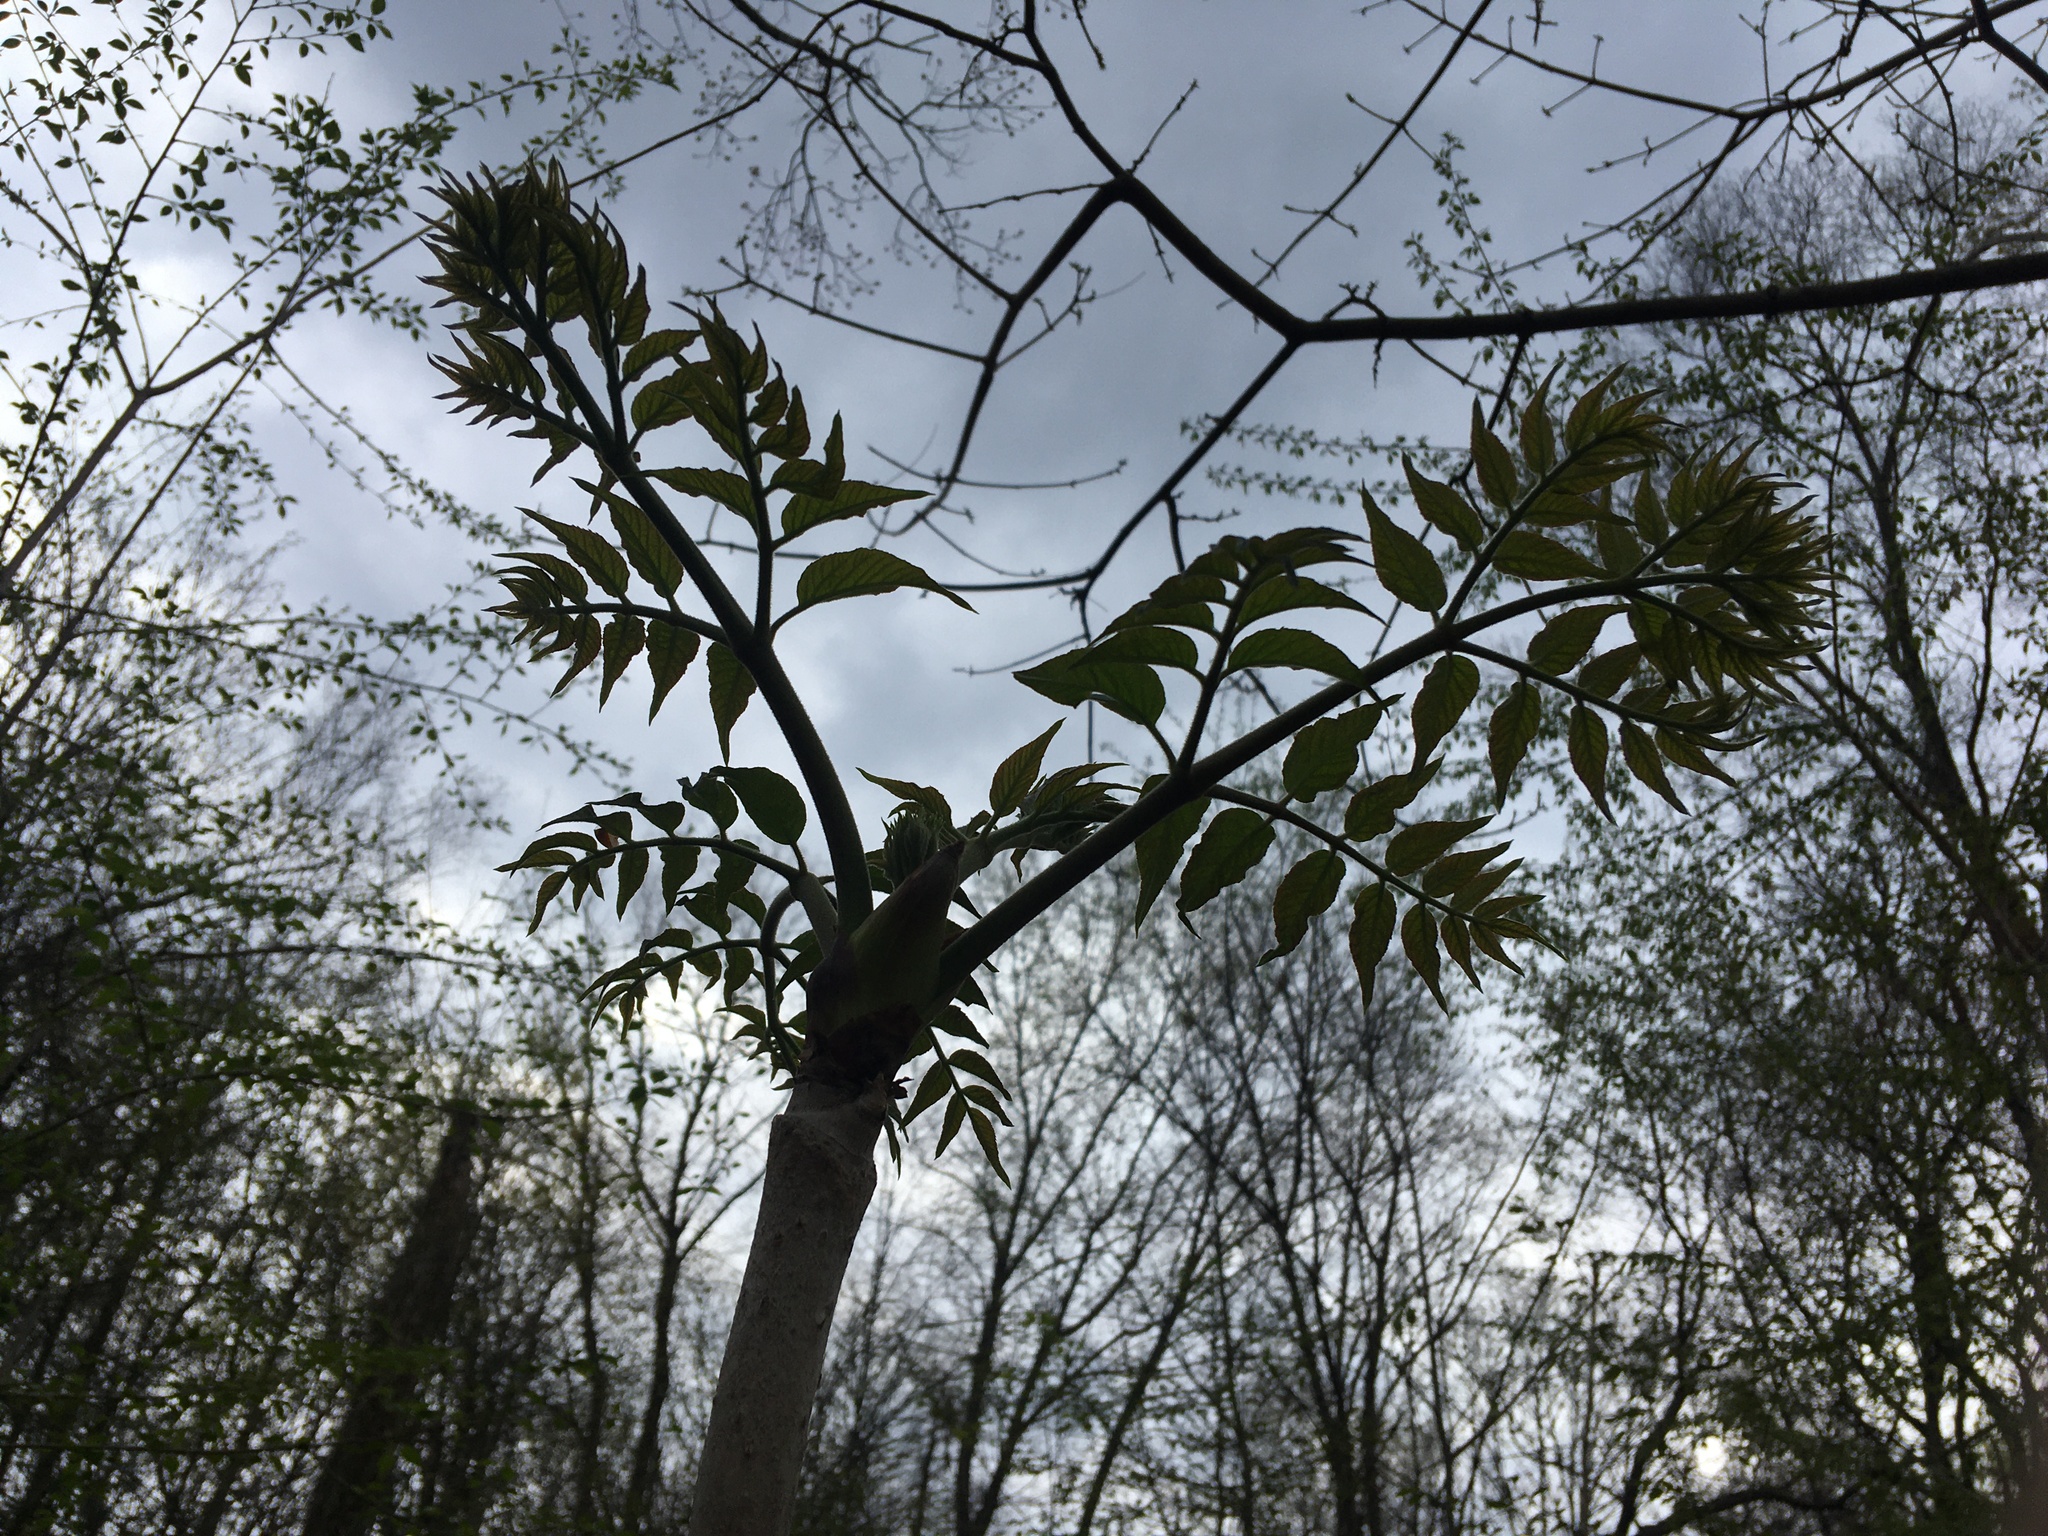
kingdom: Plantae
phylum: Tracheophyta
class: Magnoliopsida
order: Apiales
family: Araliaceae
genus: Aralia
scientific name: Aralia elata
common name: Japanese angelica-tree
